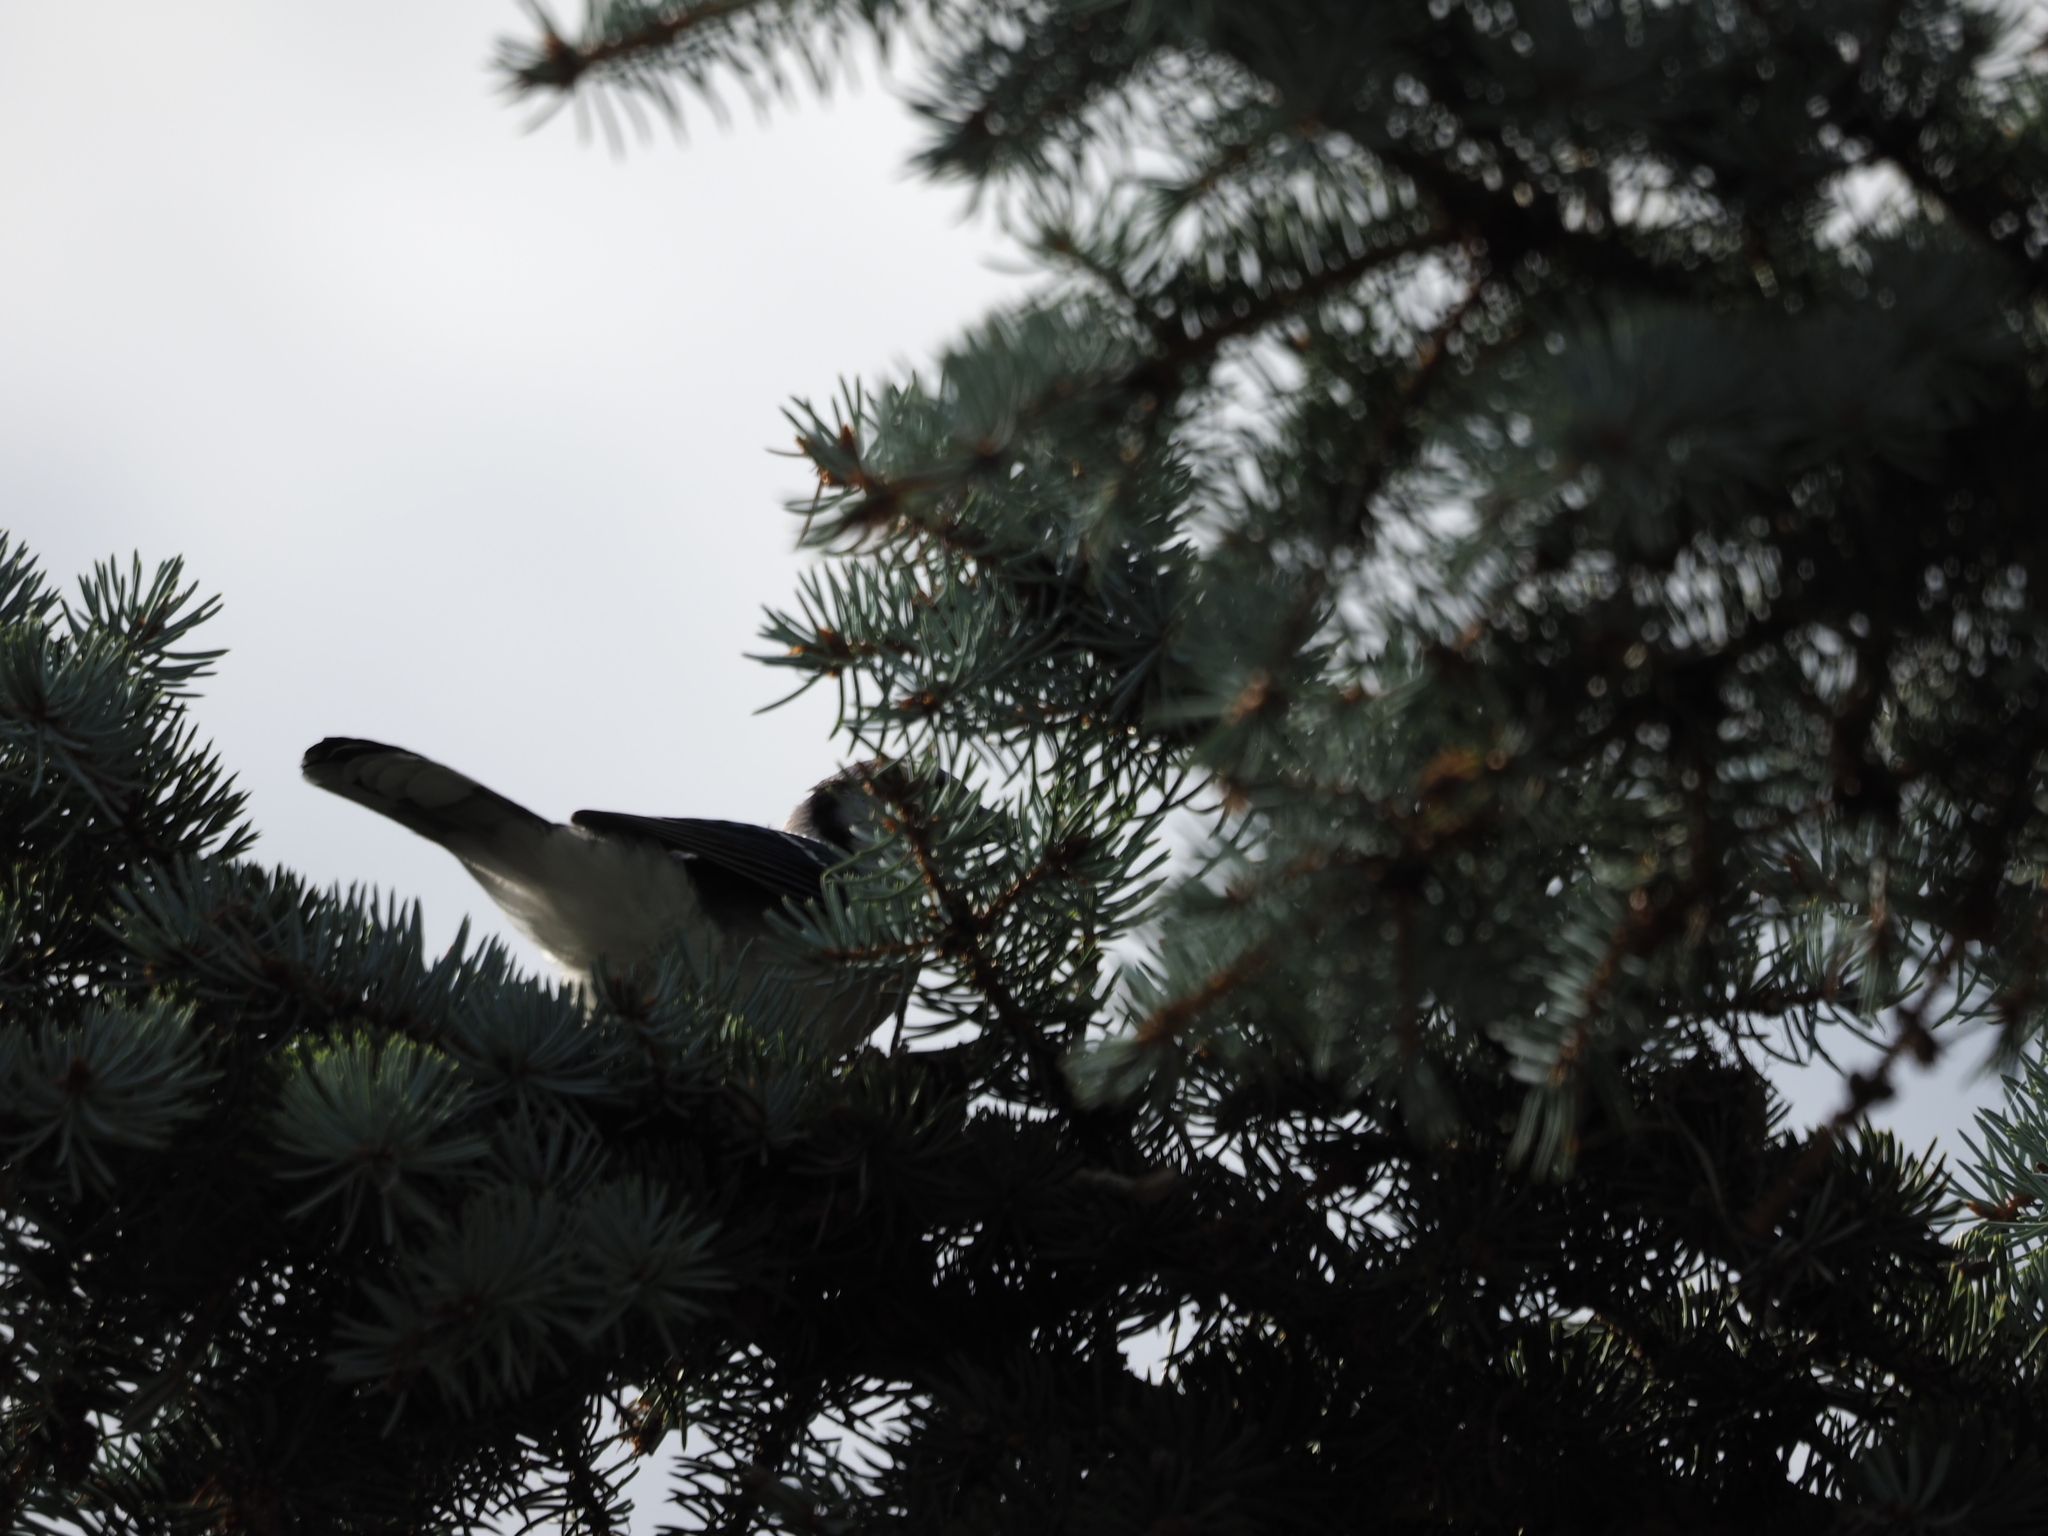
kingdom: Animalia
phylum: Chordata
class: Aves
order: Passeriformes
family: Corvidae
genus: Cyanocitta
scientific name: Cyanocitta cristata
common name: Blue jay
